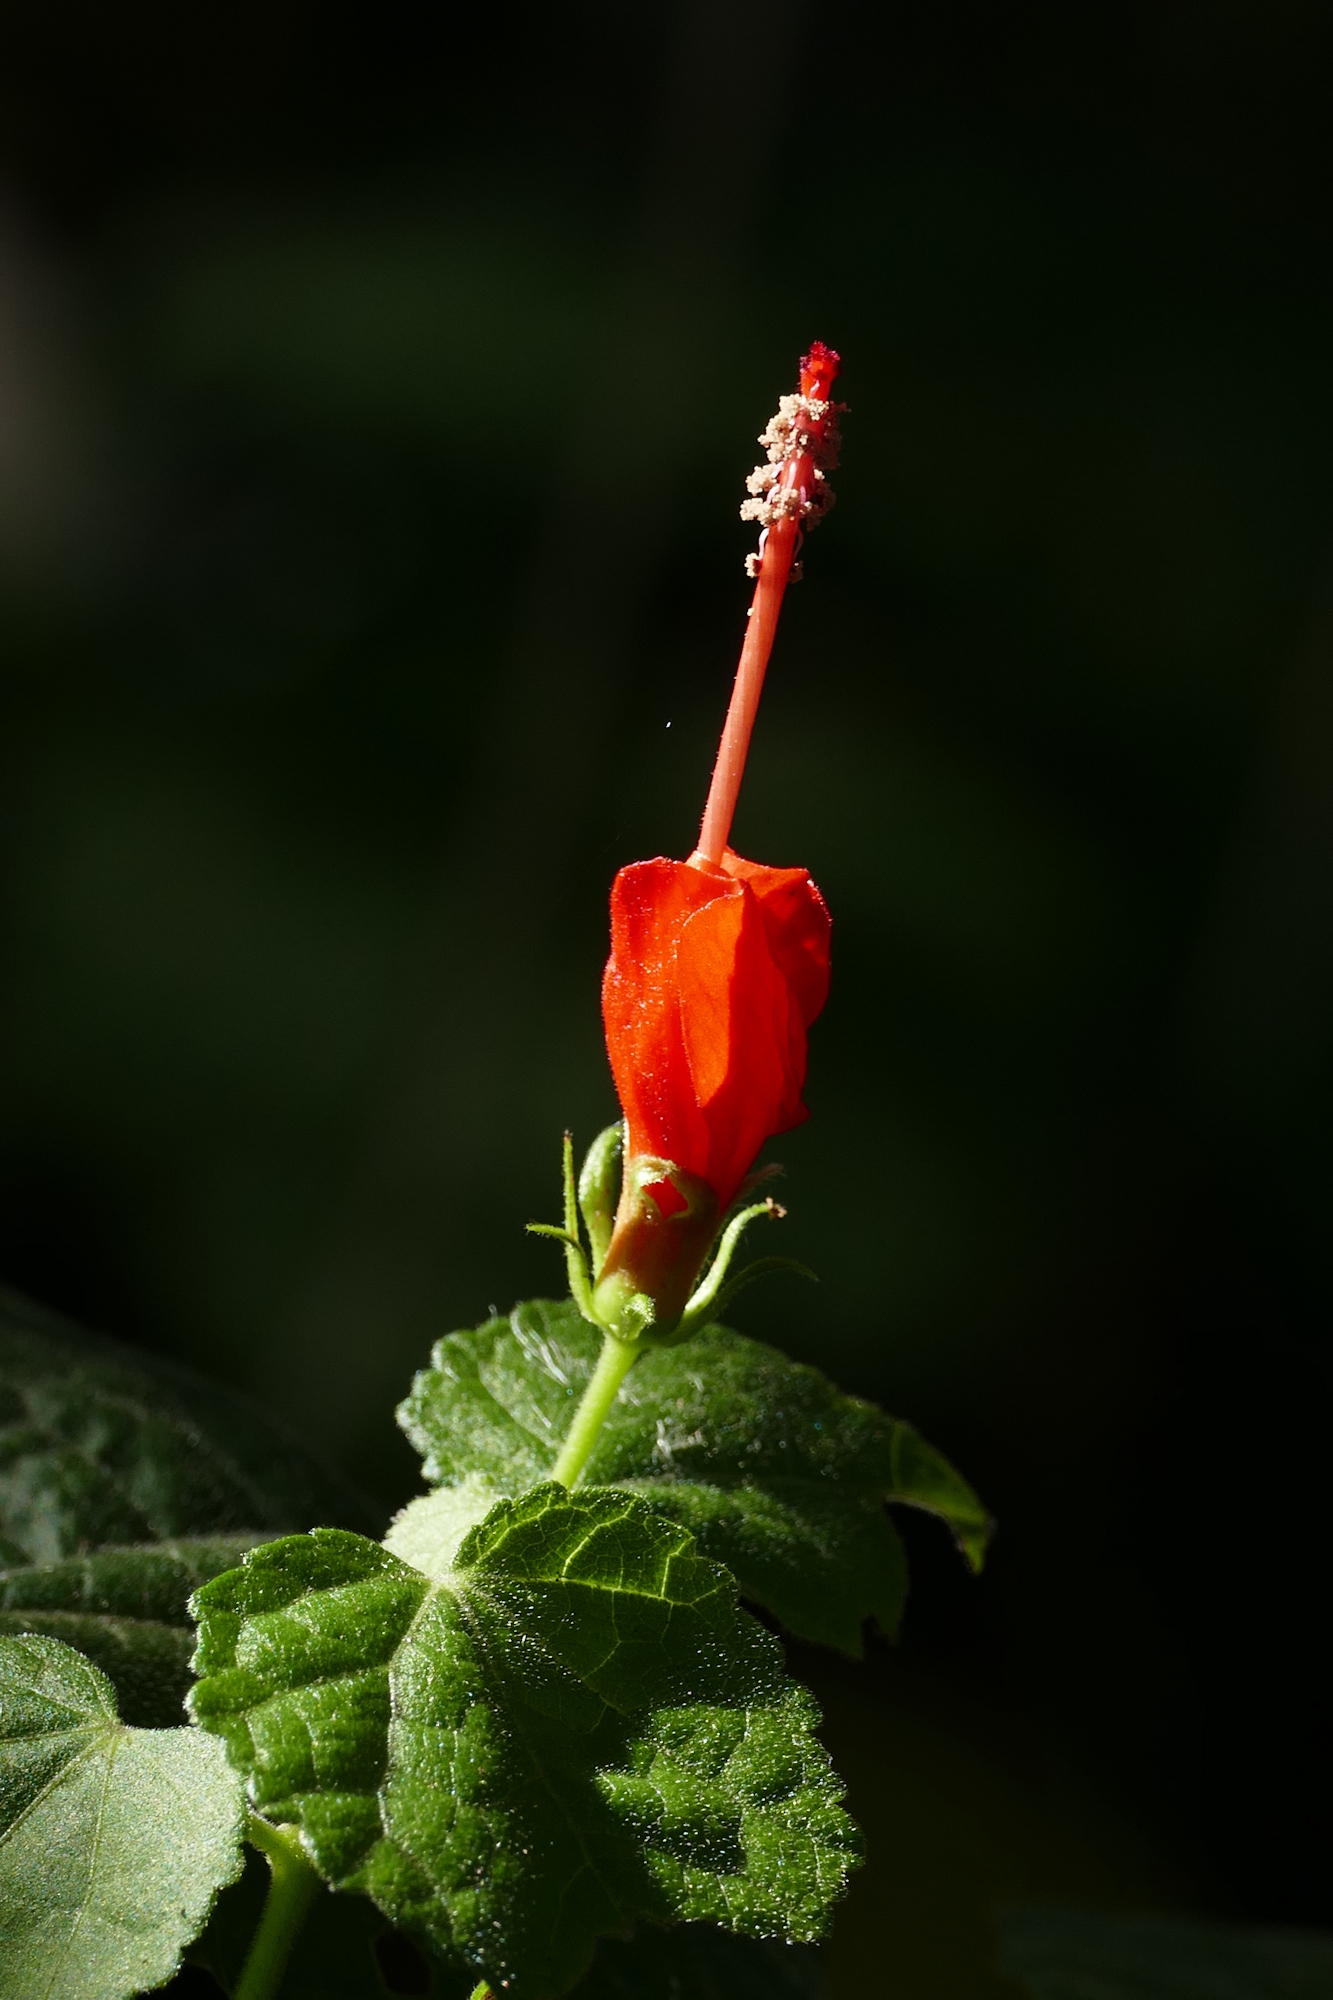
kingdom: Plantae
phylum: Tracheophyta
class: Magnoliopsida
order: Malvales
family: Malvaceae
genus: Malvaviscus
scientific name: Malvaviscus arboreus
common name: Wax mallow
